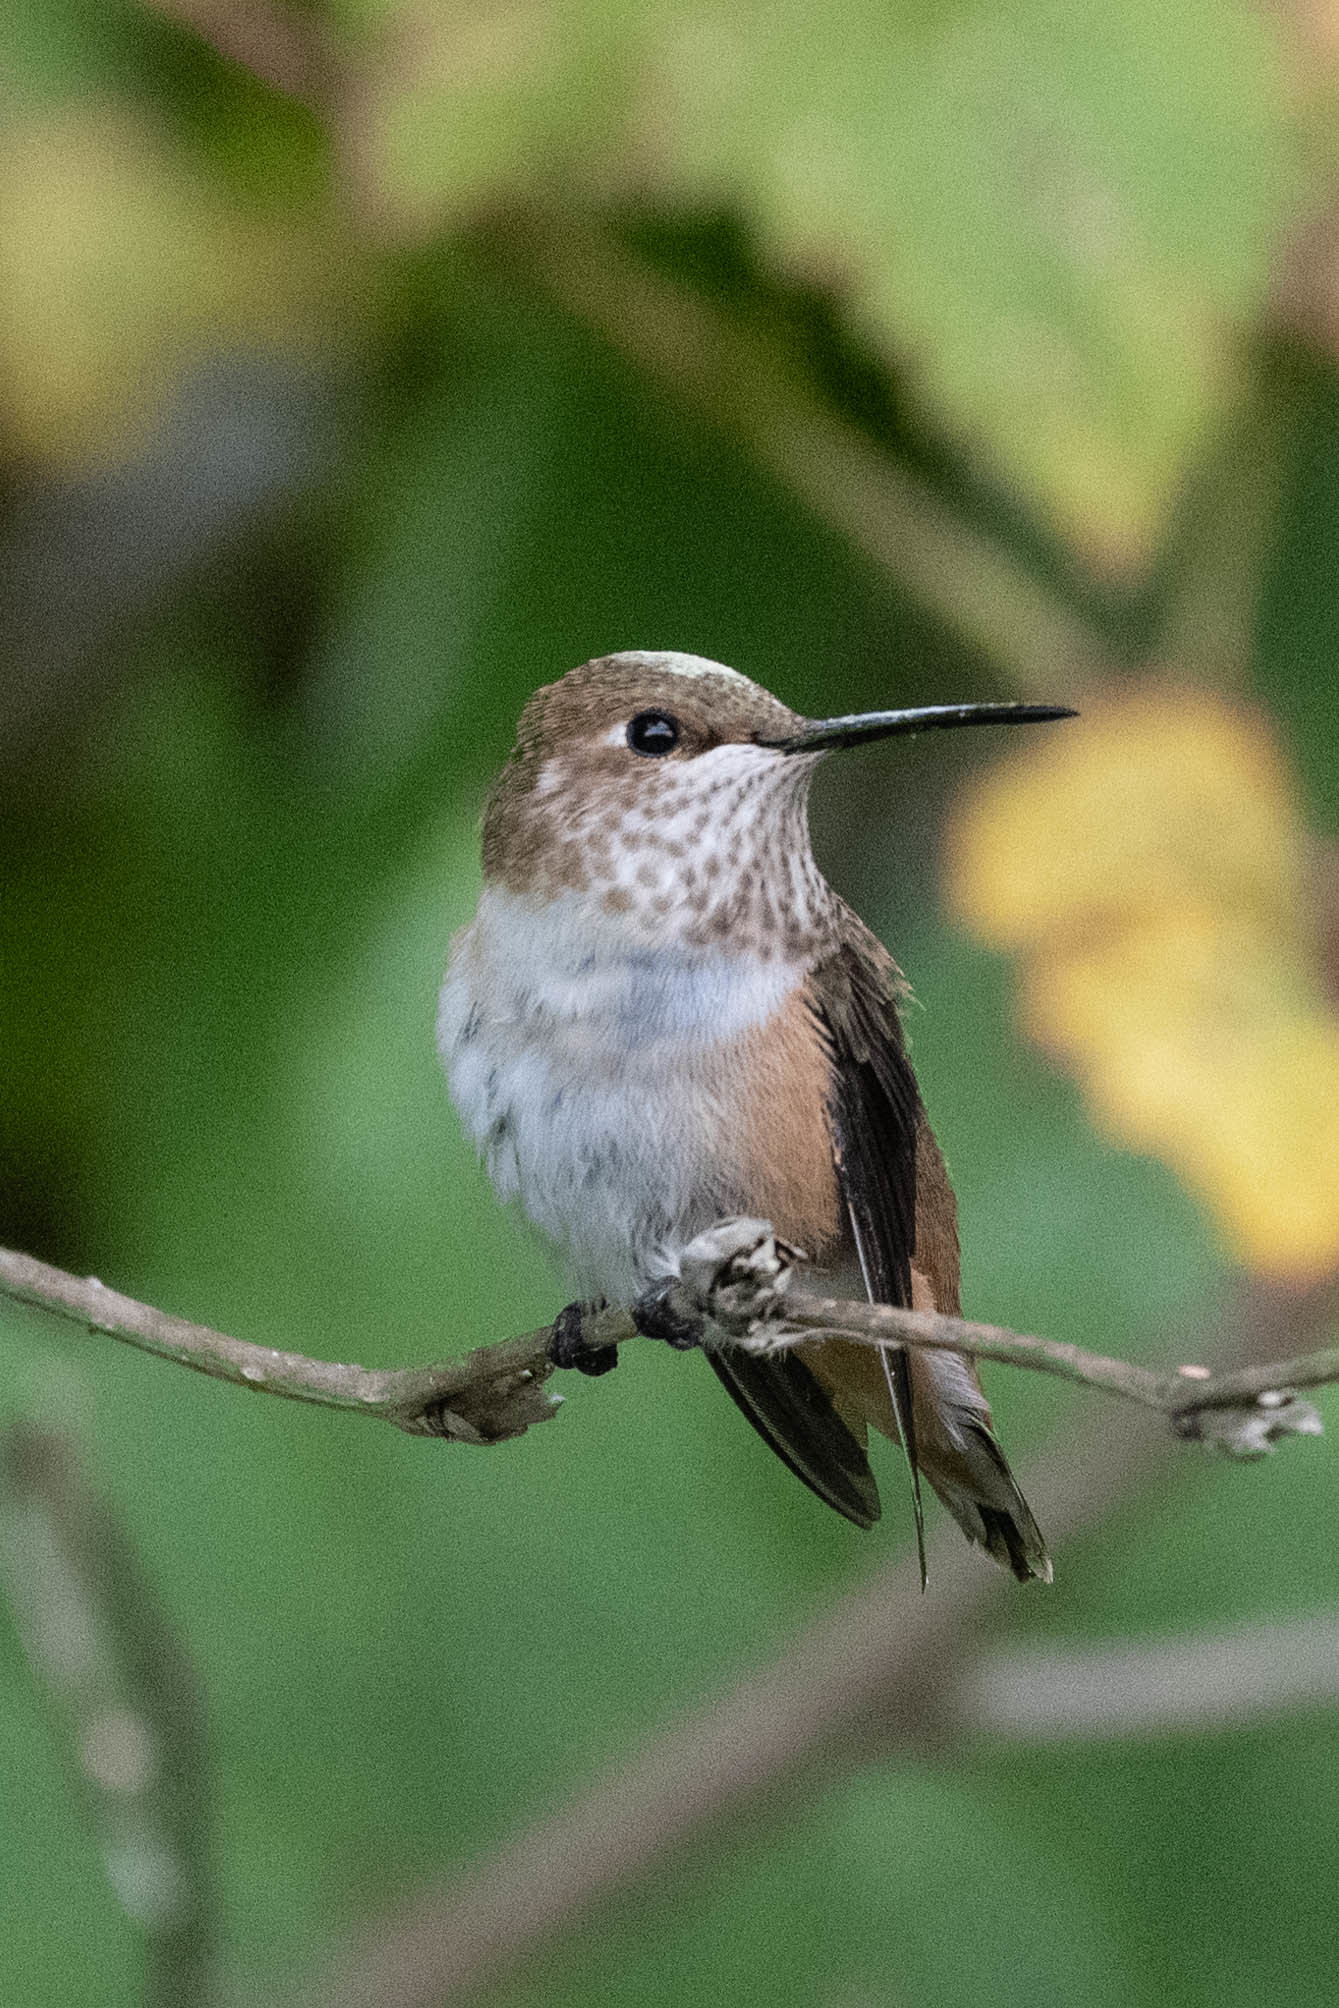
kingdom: Animalia
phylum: Chordata
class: Aves
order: Apodiformes
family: Trochilidae
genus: Selasphorus
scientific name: Selasphorus rufus
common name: Rufous hummingbird
